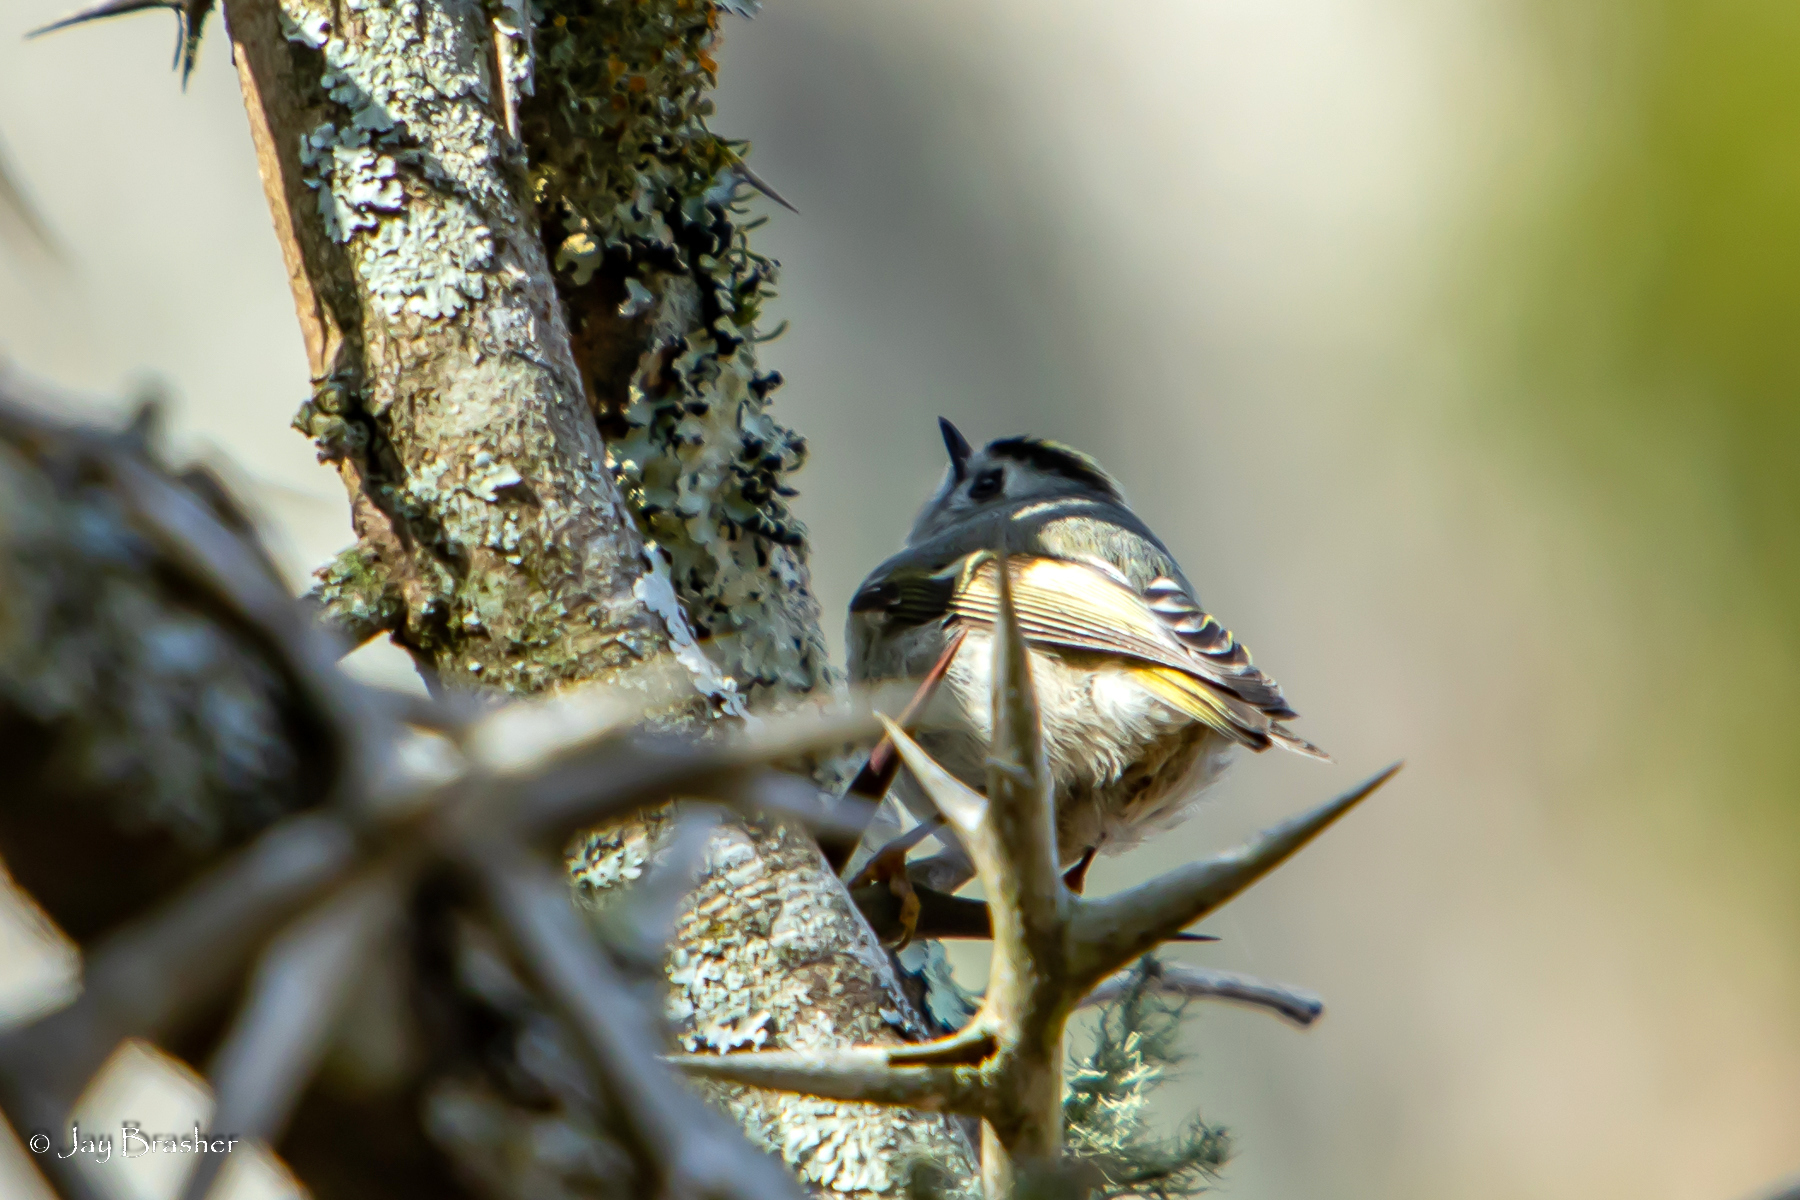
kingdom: Animalia
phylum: Chordata
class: Aves
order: Passeriformes
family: Regulidae
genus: Regulus
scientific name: Regulus satrapa
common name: Golden-crowned kinglet
